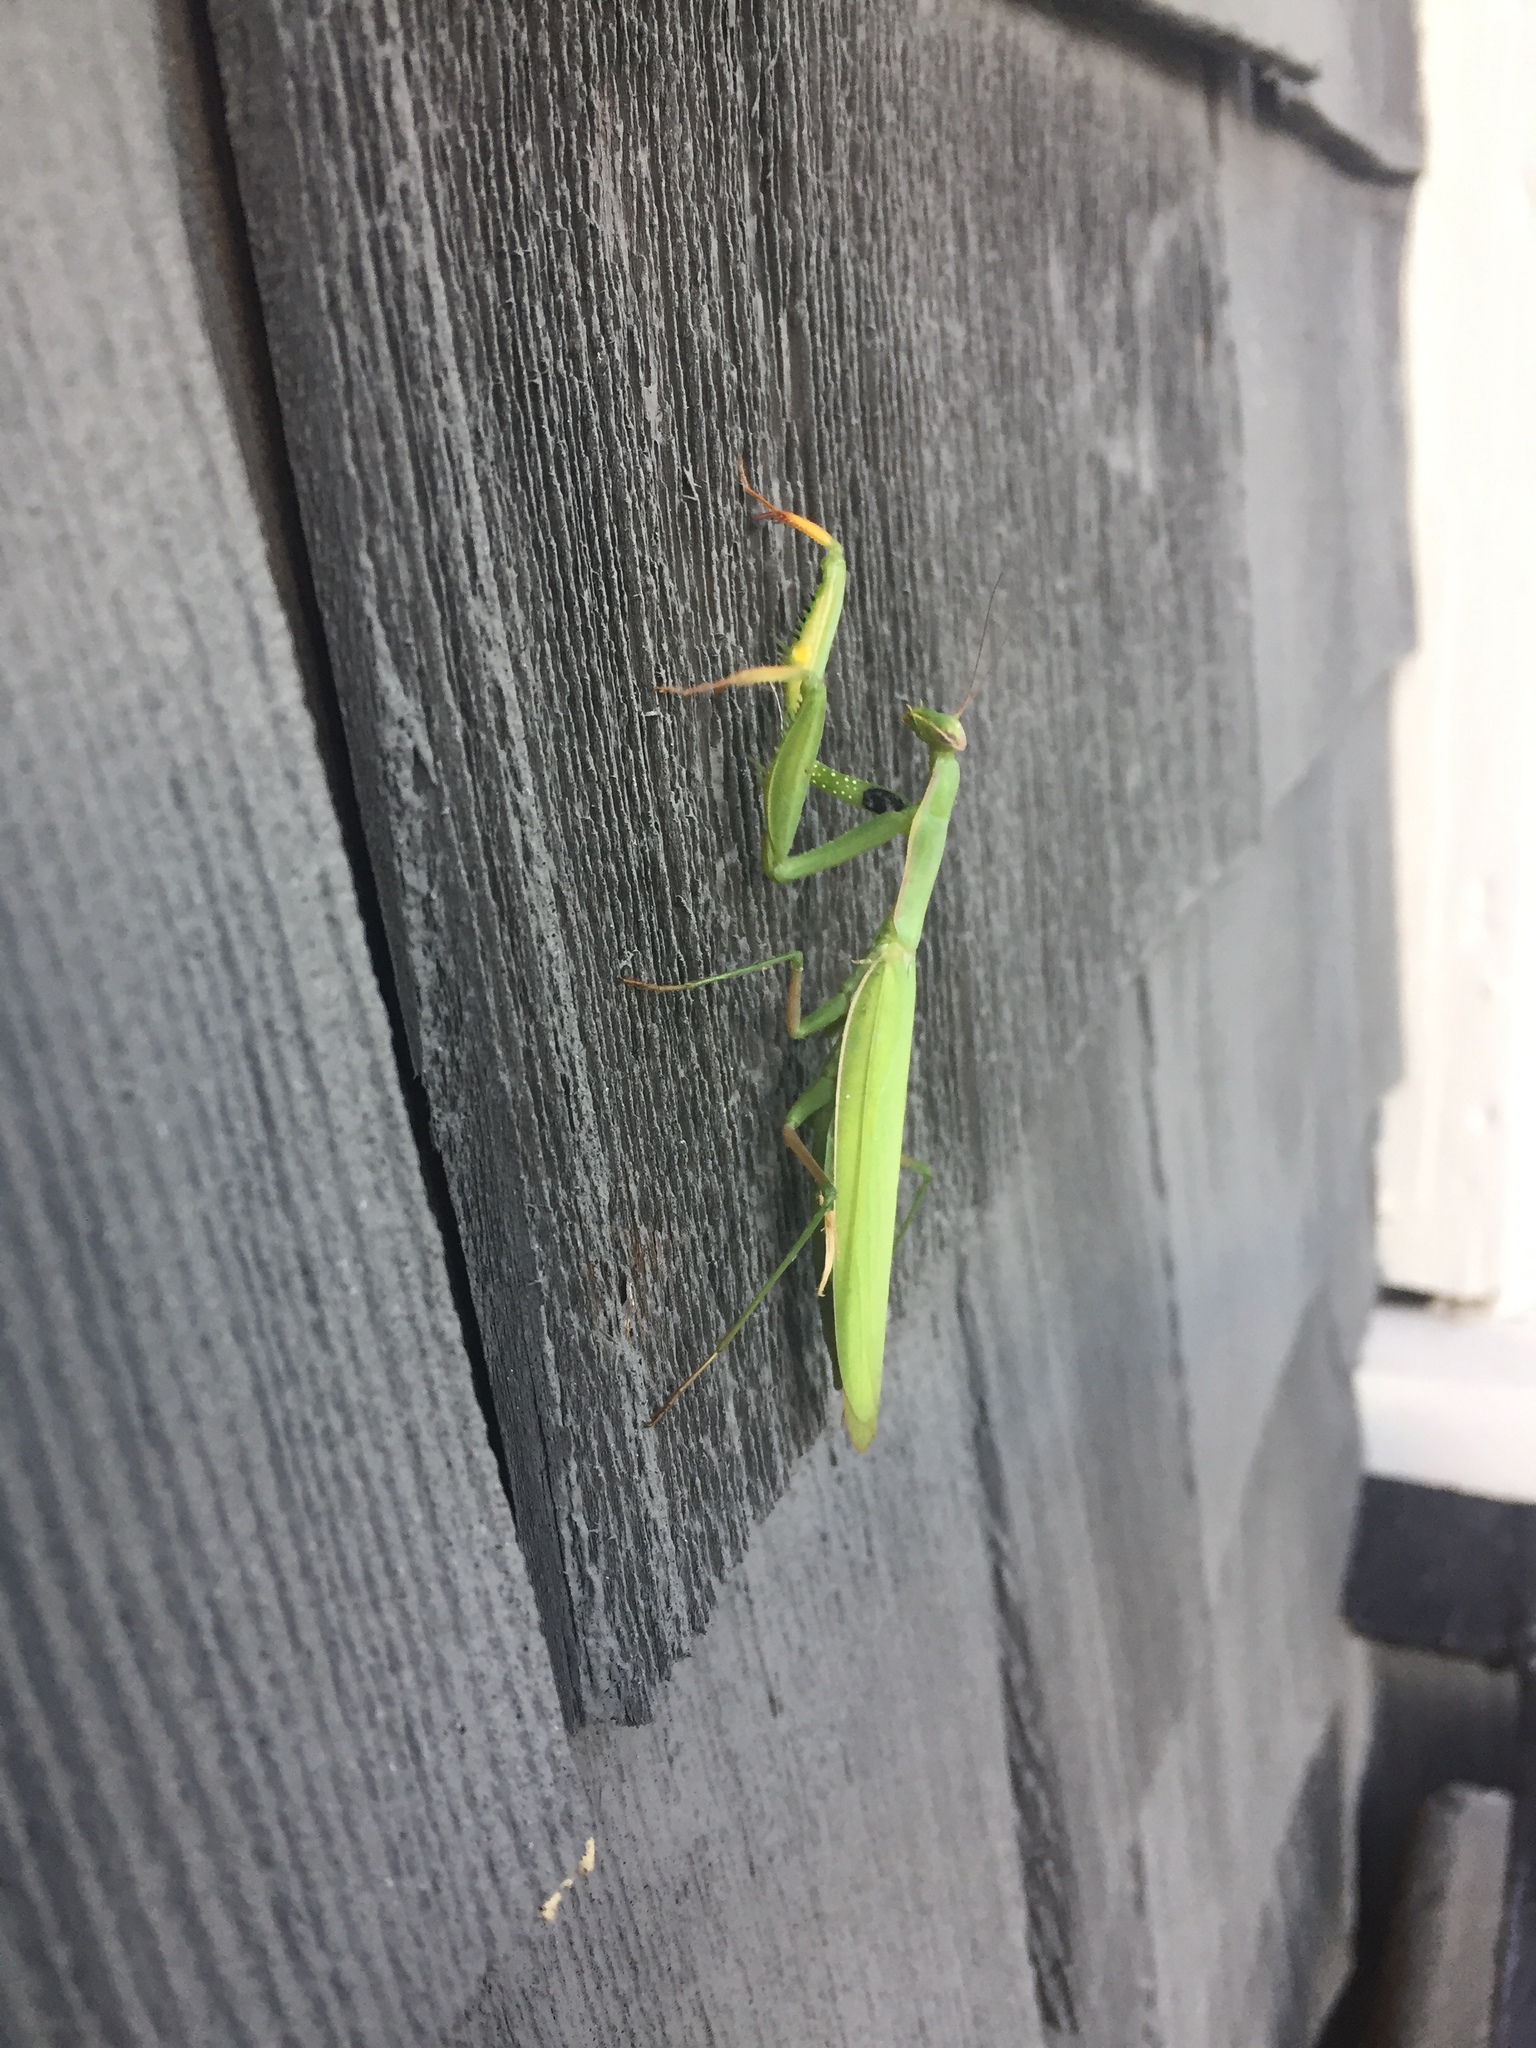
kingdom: Animalia
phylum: Arthropoda
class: Insecta
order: Mantodea
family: Mantidae
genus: Mantis
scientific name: Mantis religiosa
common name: Praying mantis
